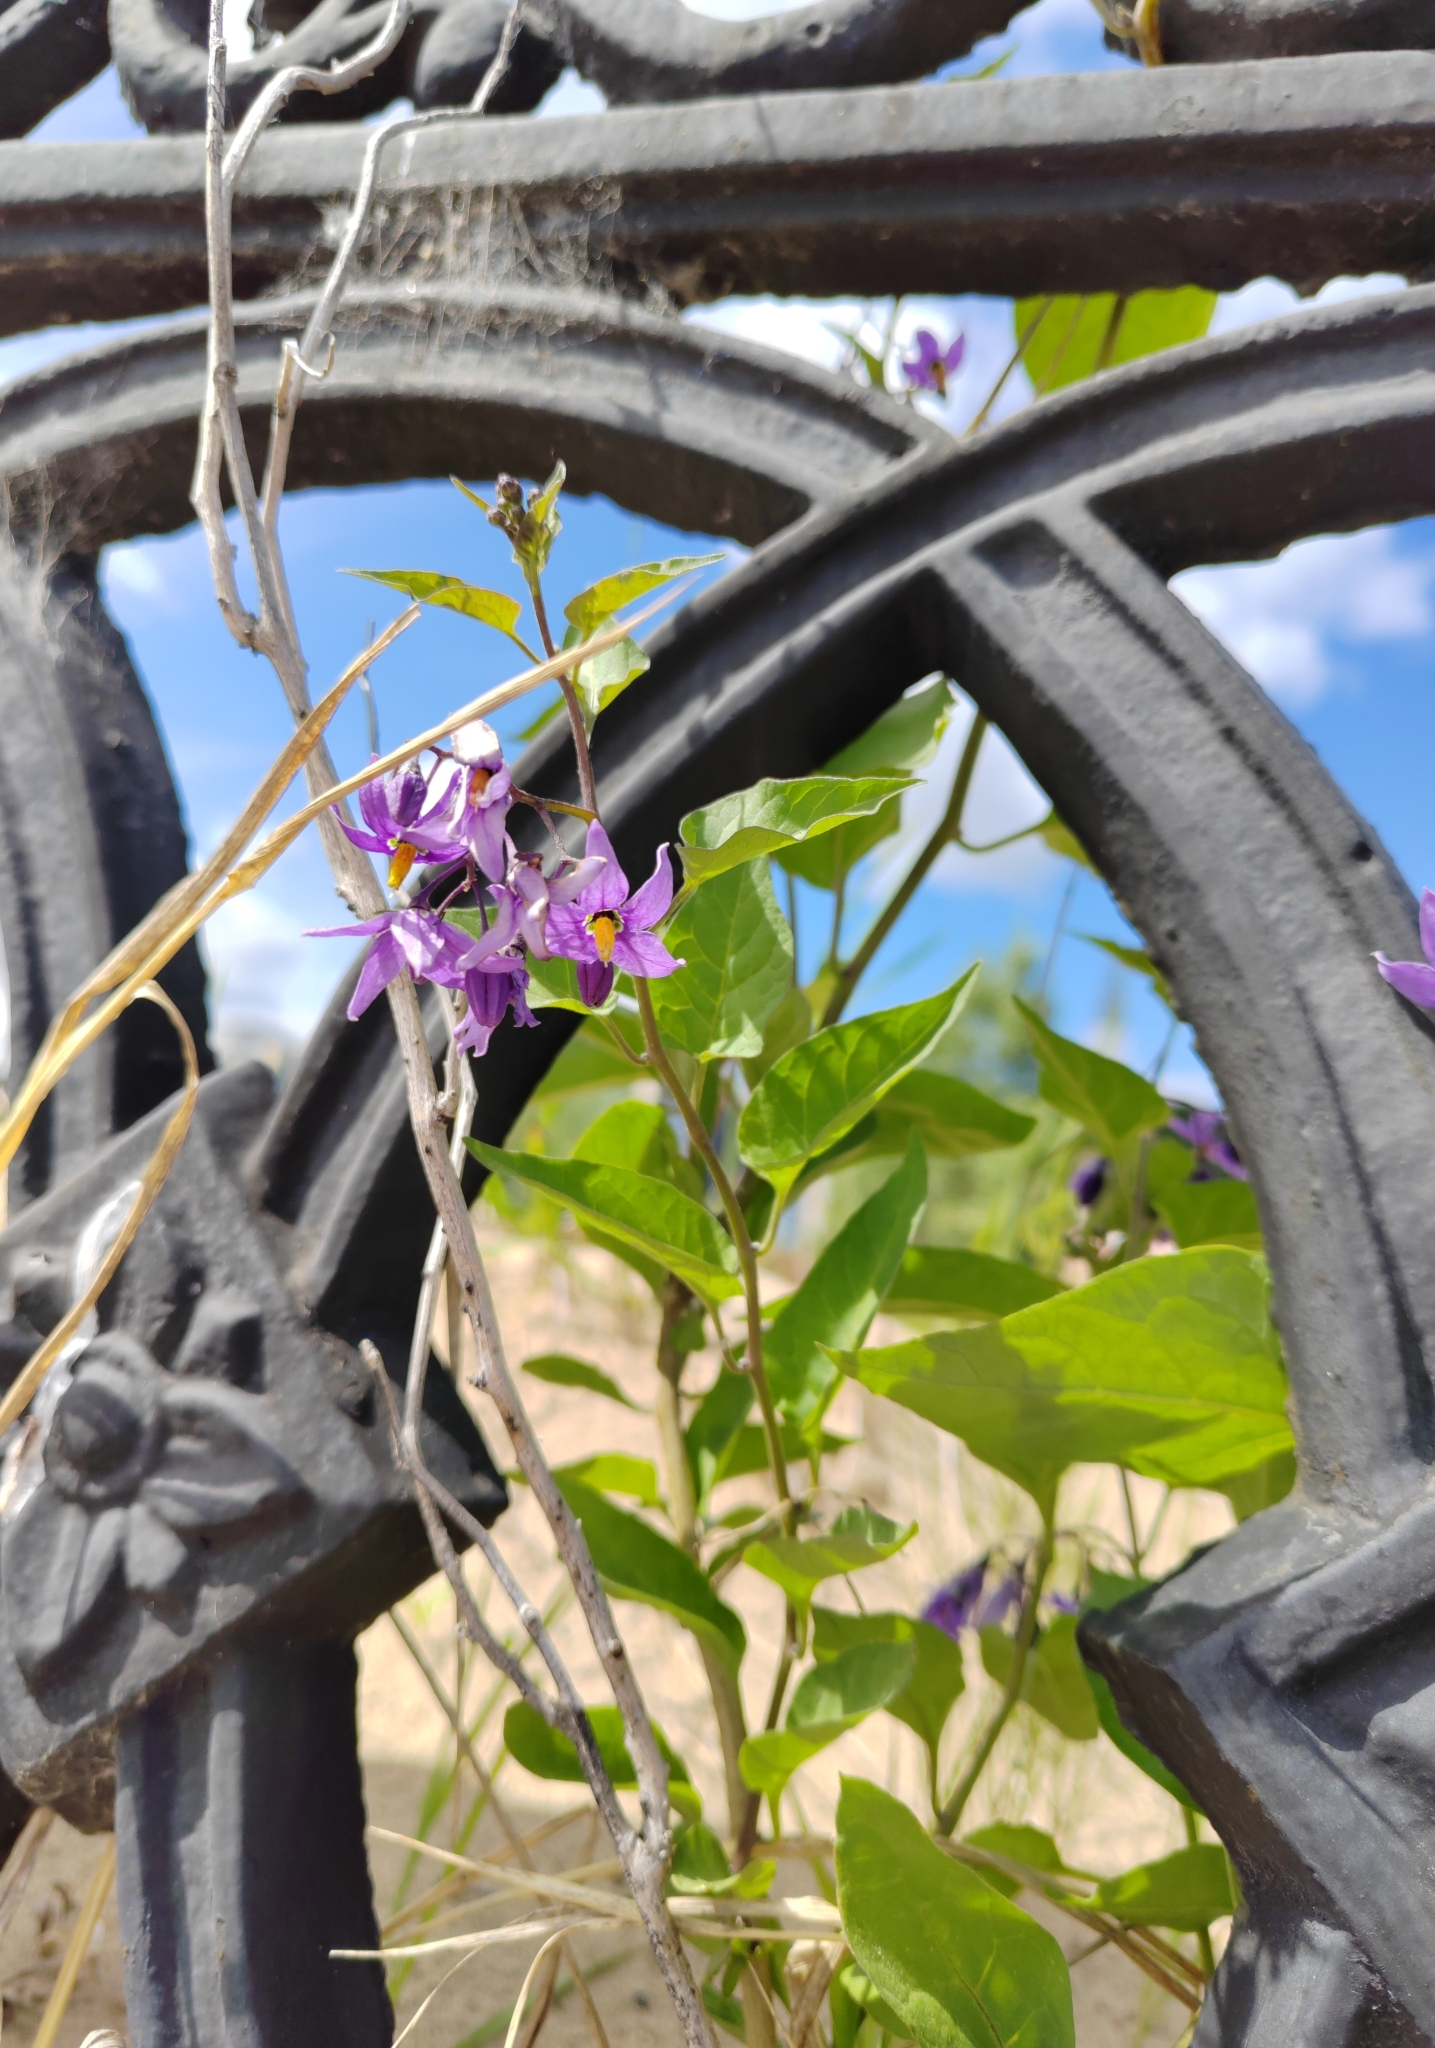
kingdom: Plantae
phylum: Tracheophyta
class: Magnoliopsida
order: Solanales
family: Solanaceae
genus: Solanum
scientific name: Solanum dulcamara
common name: Climbing nightshade
